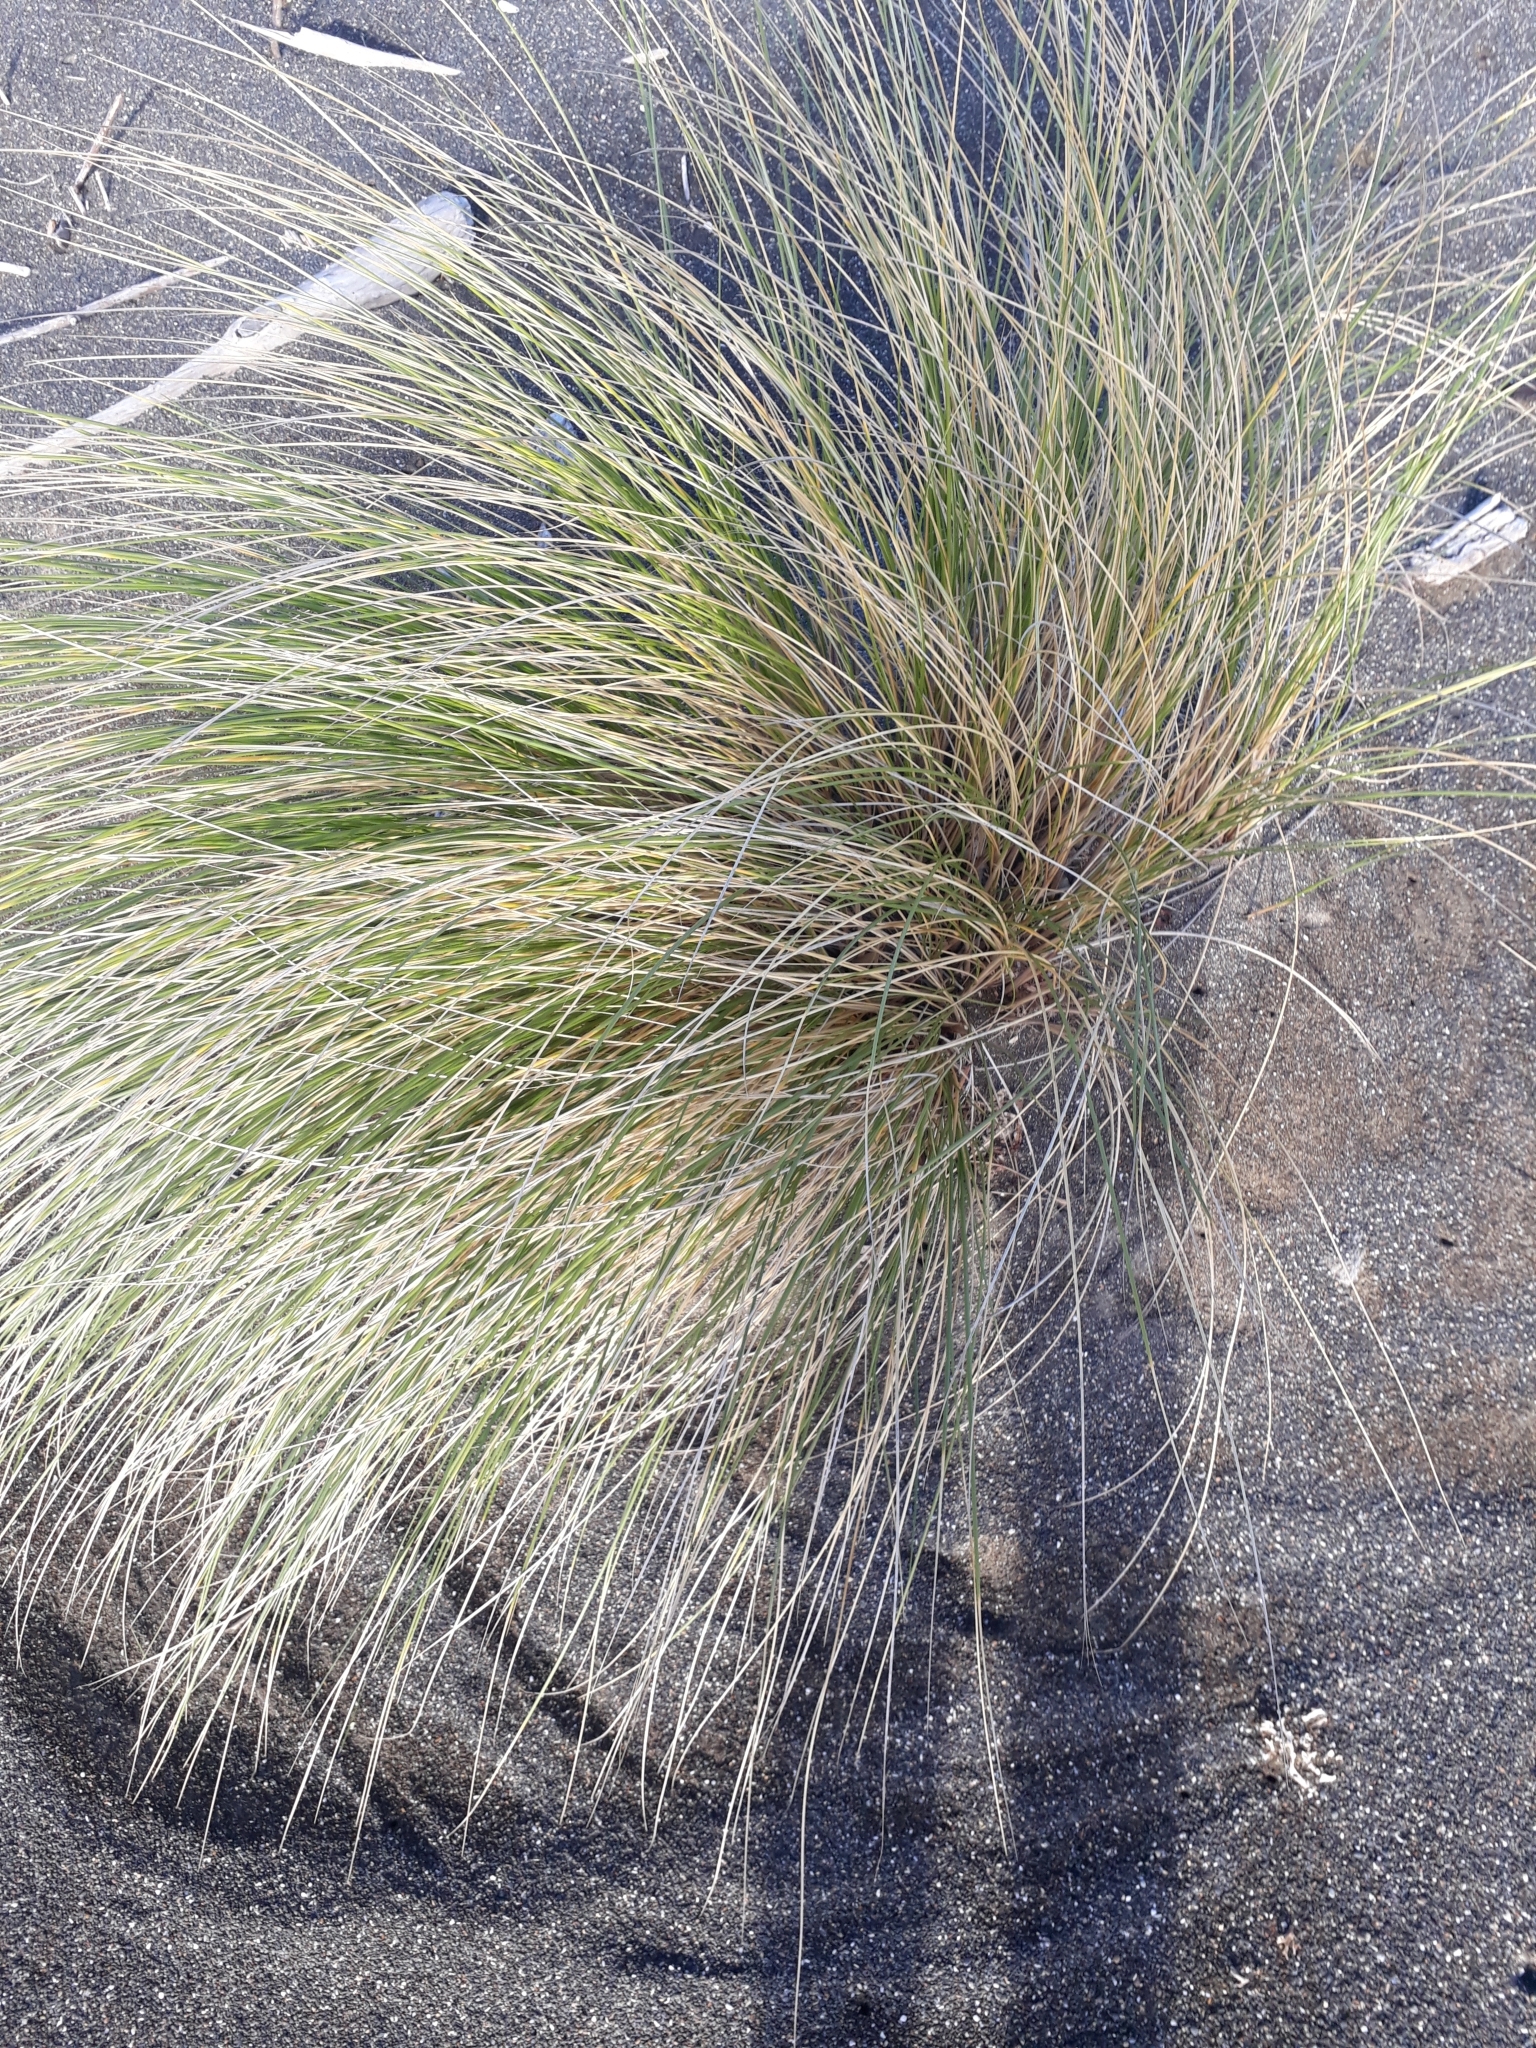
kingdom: Plantae
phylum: Tracheophyta
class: Liliopsida
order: Poales
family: Poaceae
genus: Poa
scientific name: Poa cita
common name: Silver tussock
